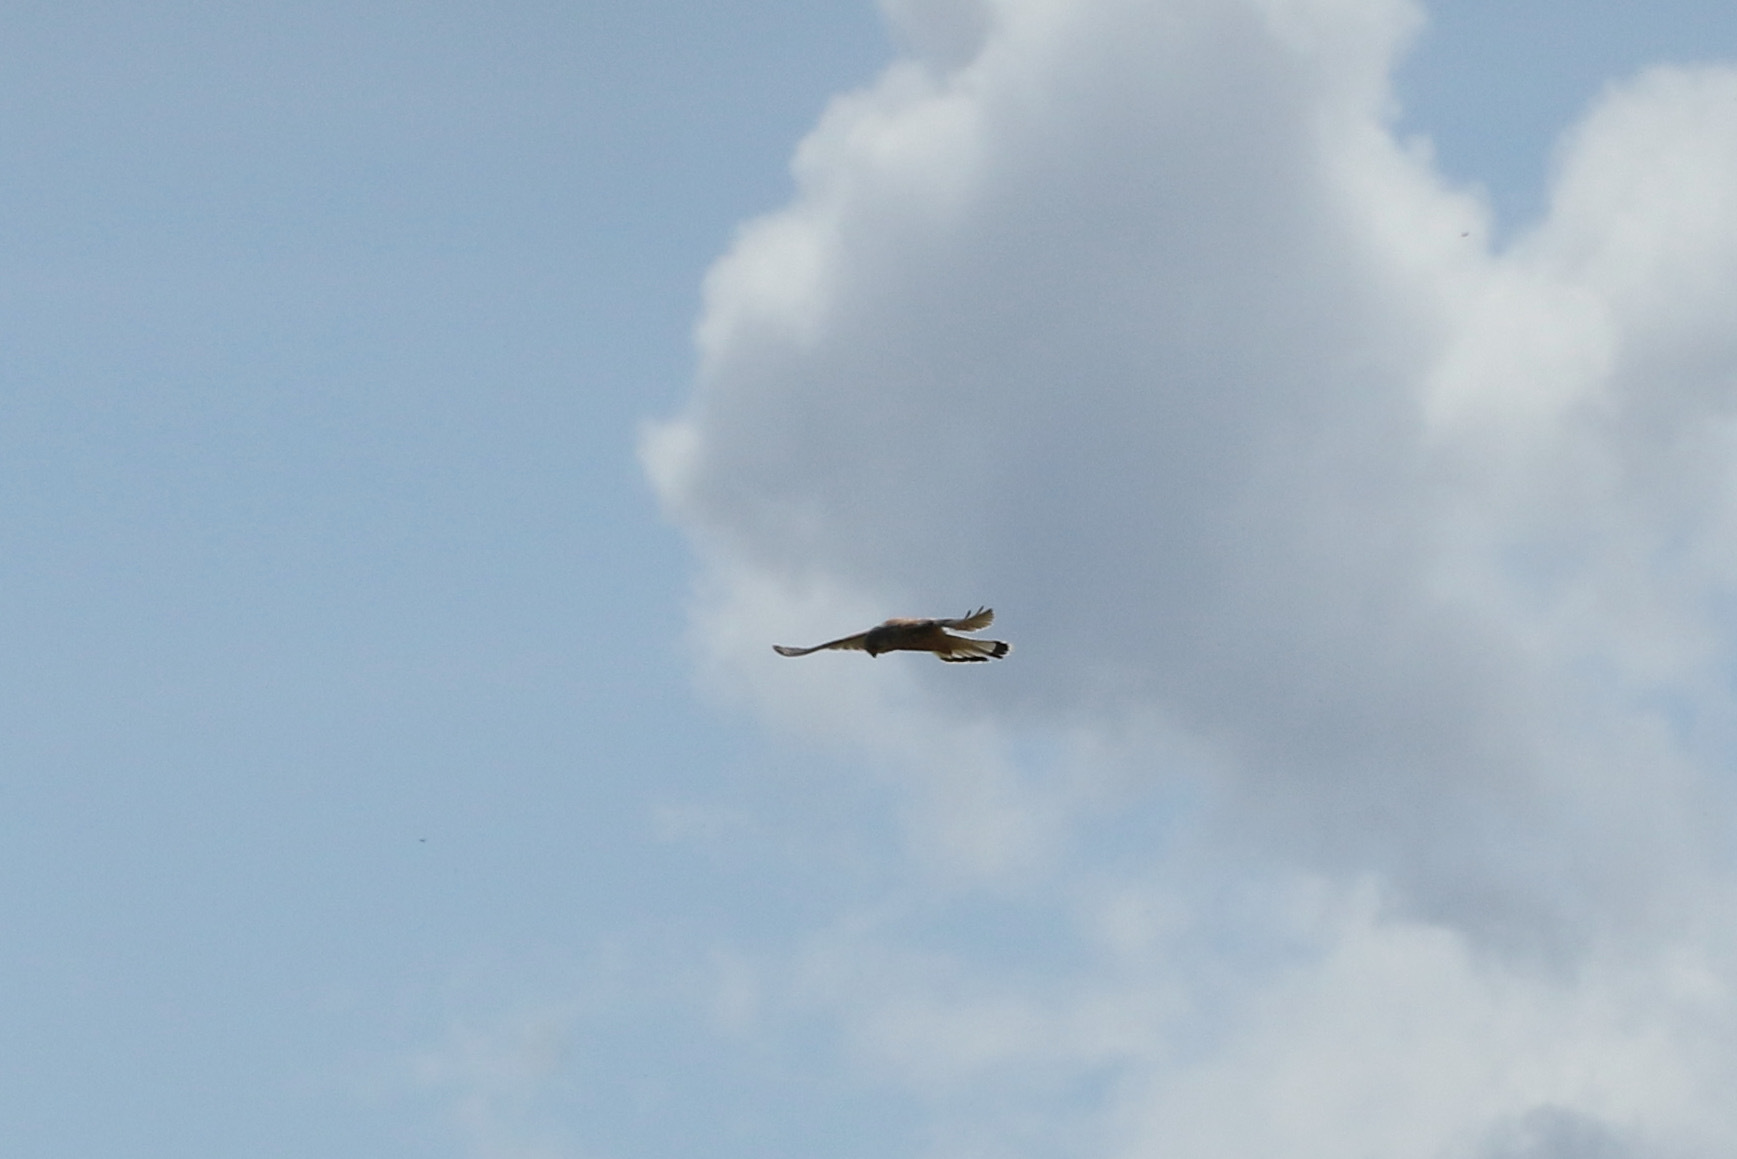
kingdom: Animalia
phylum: Chordata
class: Aves
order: Falconiformes
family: Falconidae
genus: Falco
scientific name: Falco tinnunculus
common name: Common kestrel
